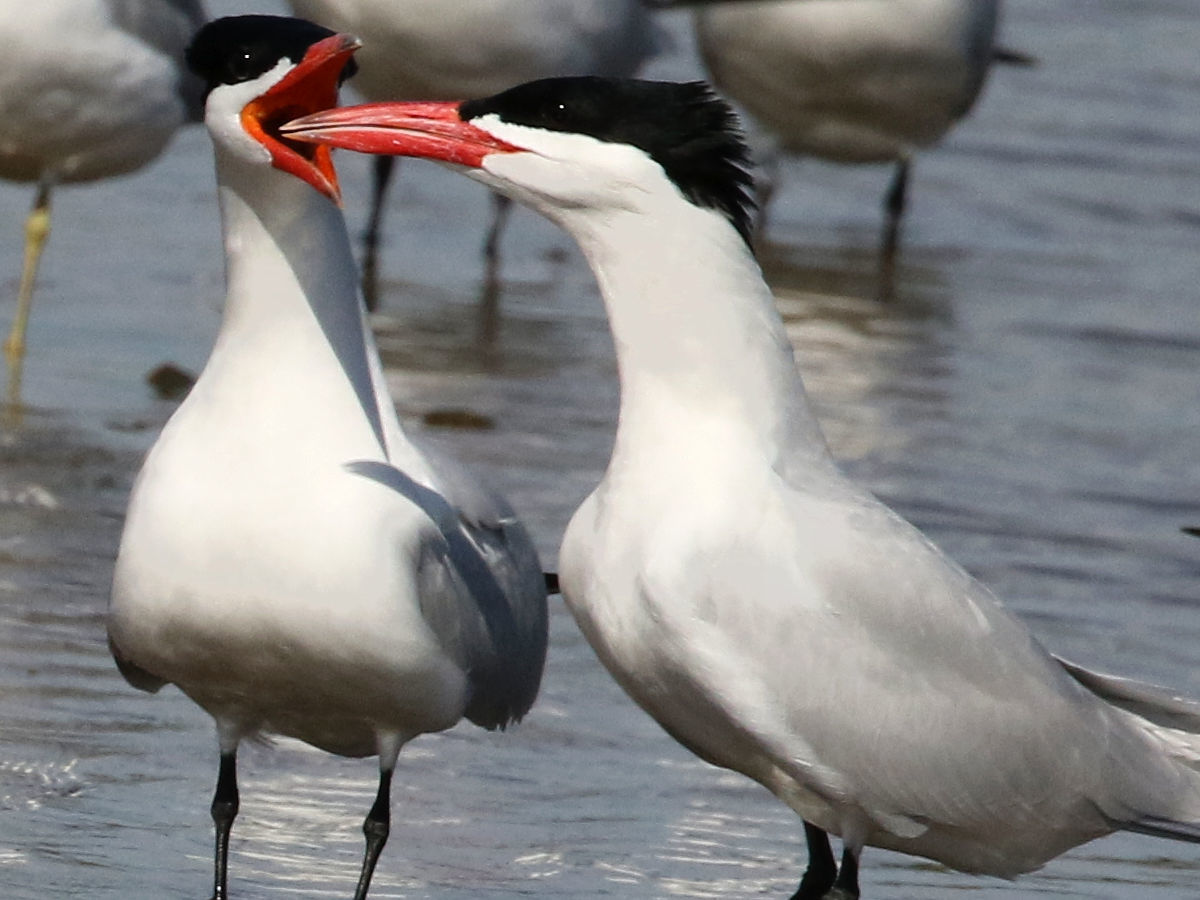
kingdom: Animalia
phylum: Chordata
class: Aves
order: Charadriiformes
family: Laridae
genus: Hydroprogne
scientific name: Hydroprogne caspia
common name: Caspian tern
